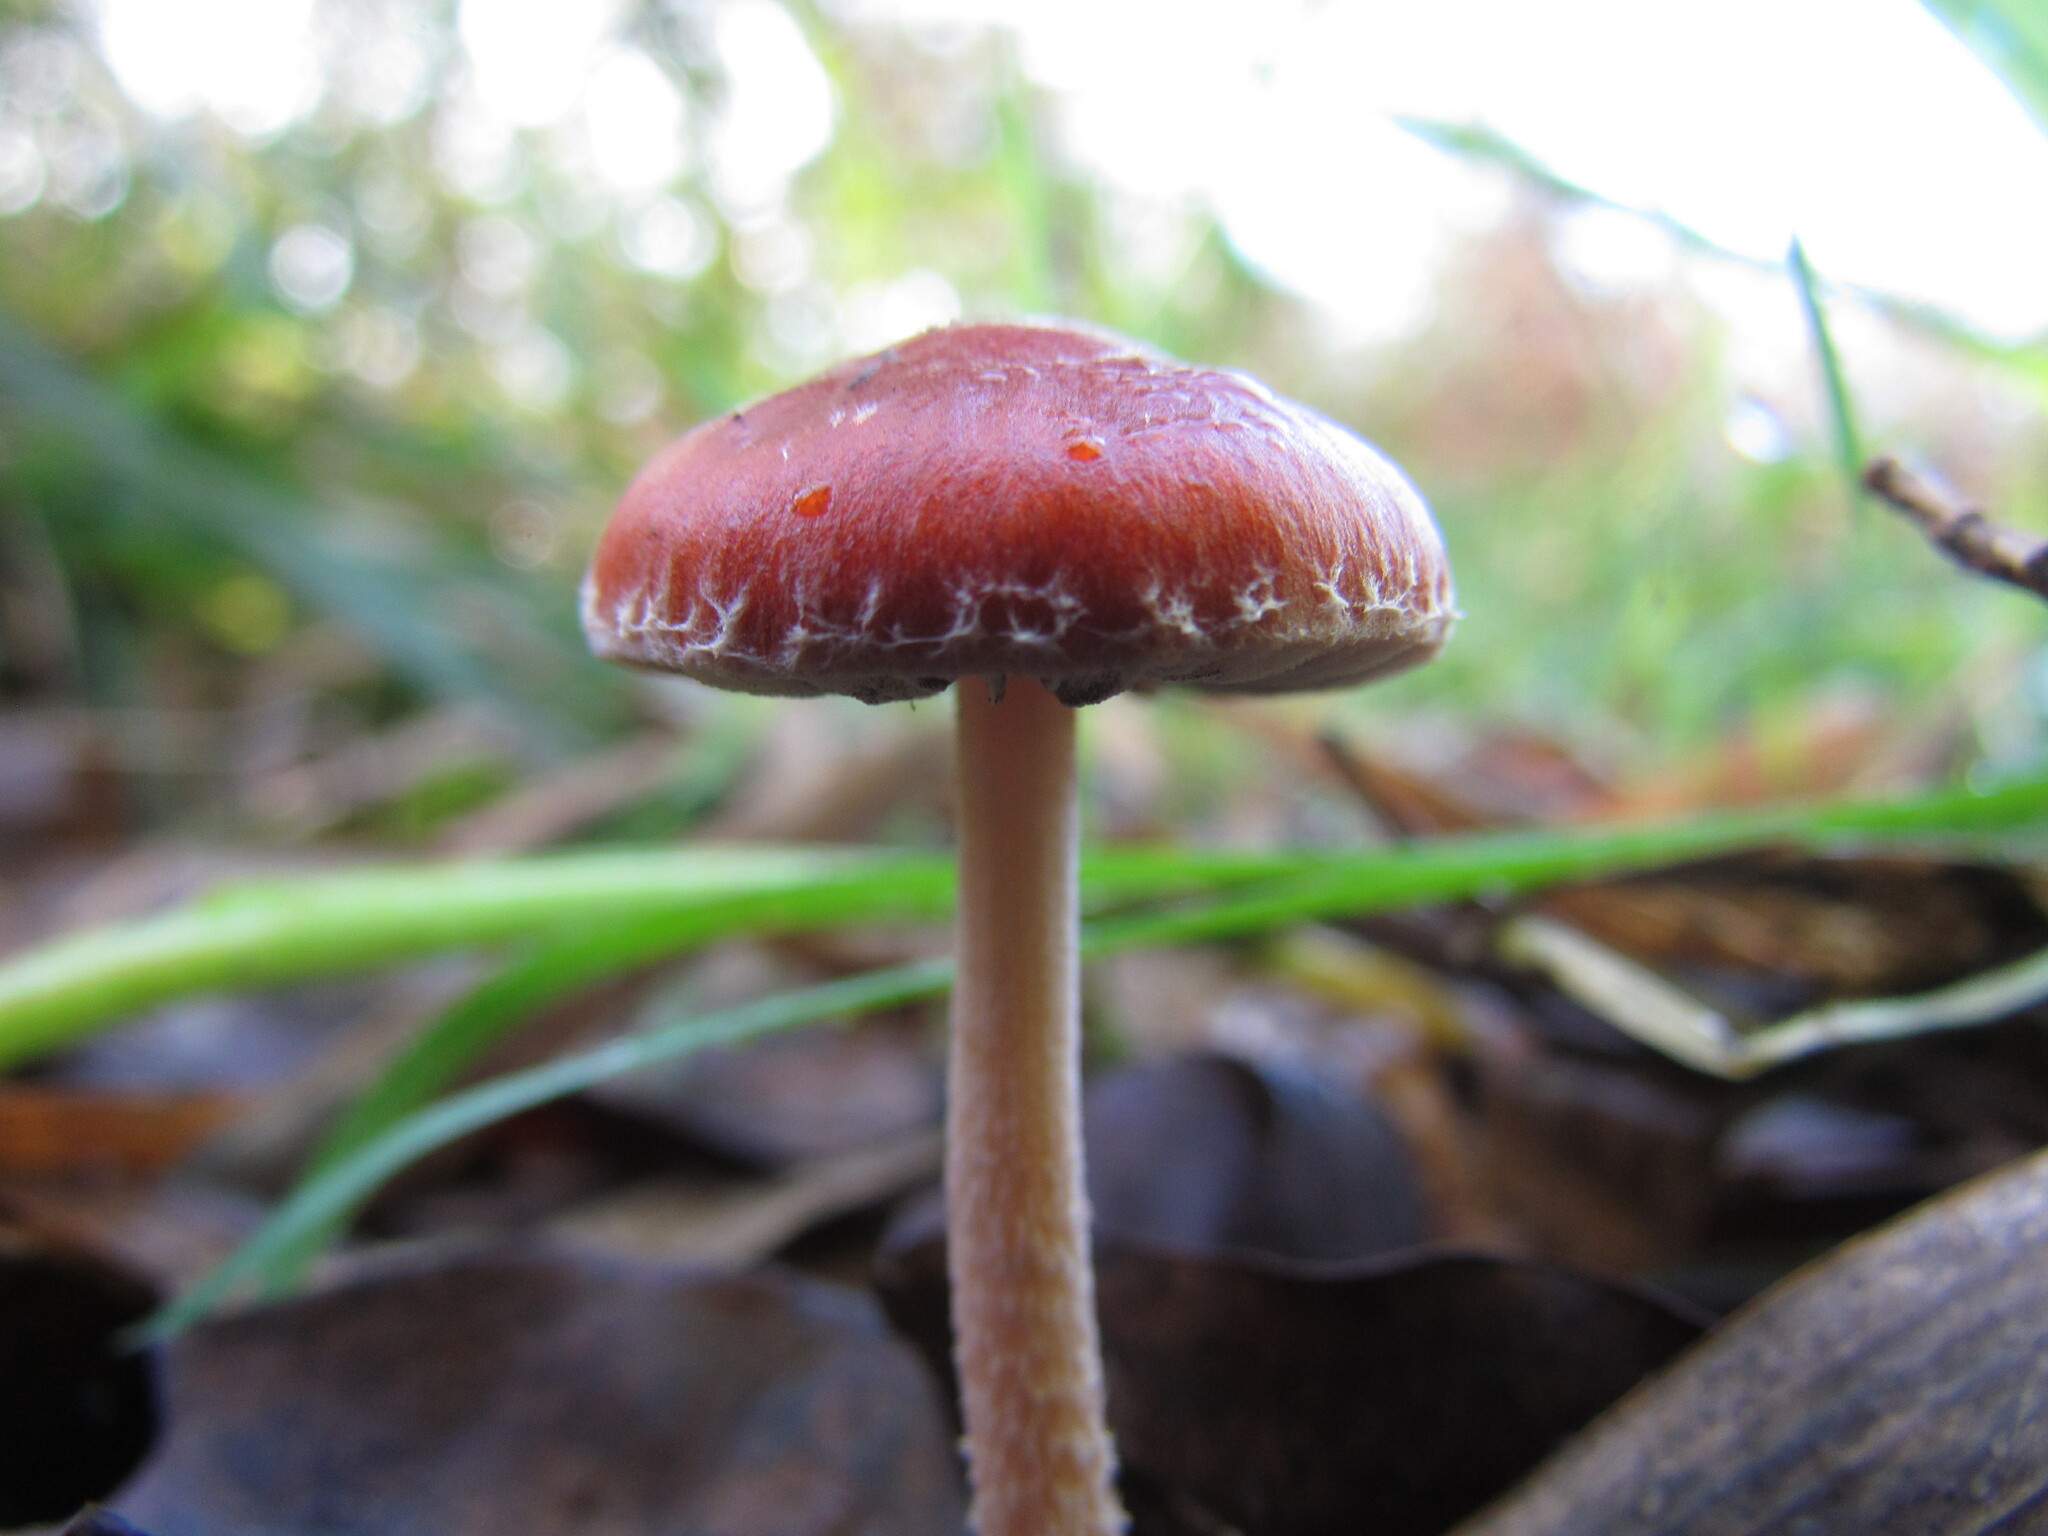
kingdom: Fungi
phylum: Basidiomycota
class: Agaricomycetes
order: Agaricales
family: Strophariaceae
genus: Leratiomyces
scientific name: Leratiomyces ceres
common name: Redlead roundhead
